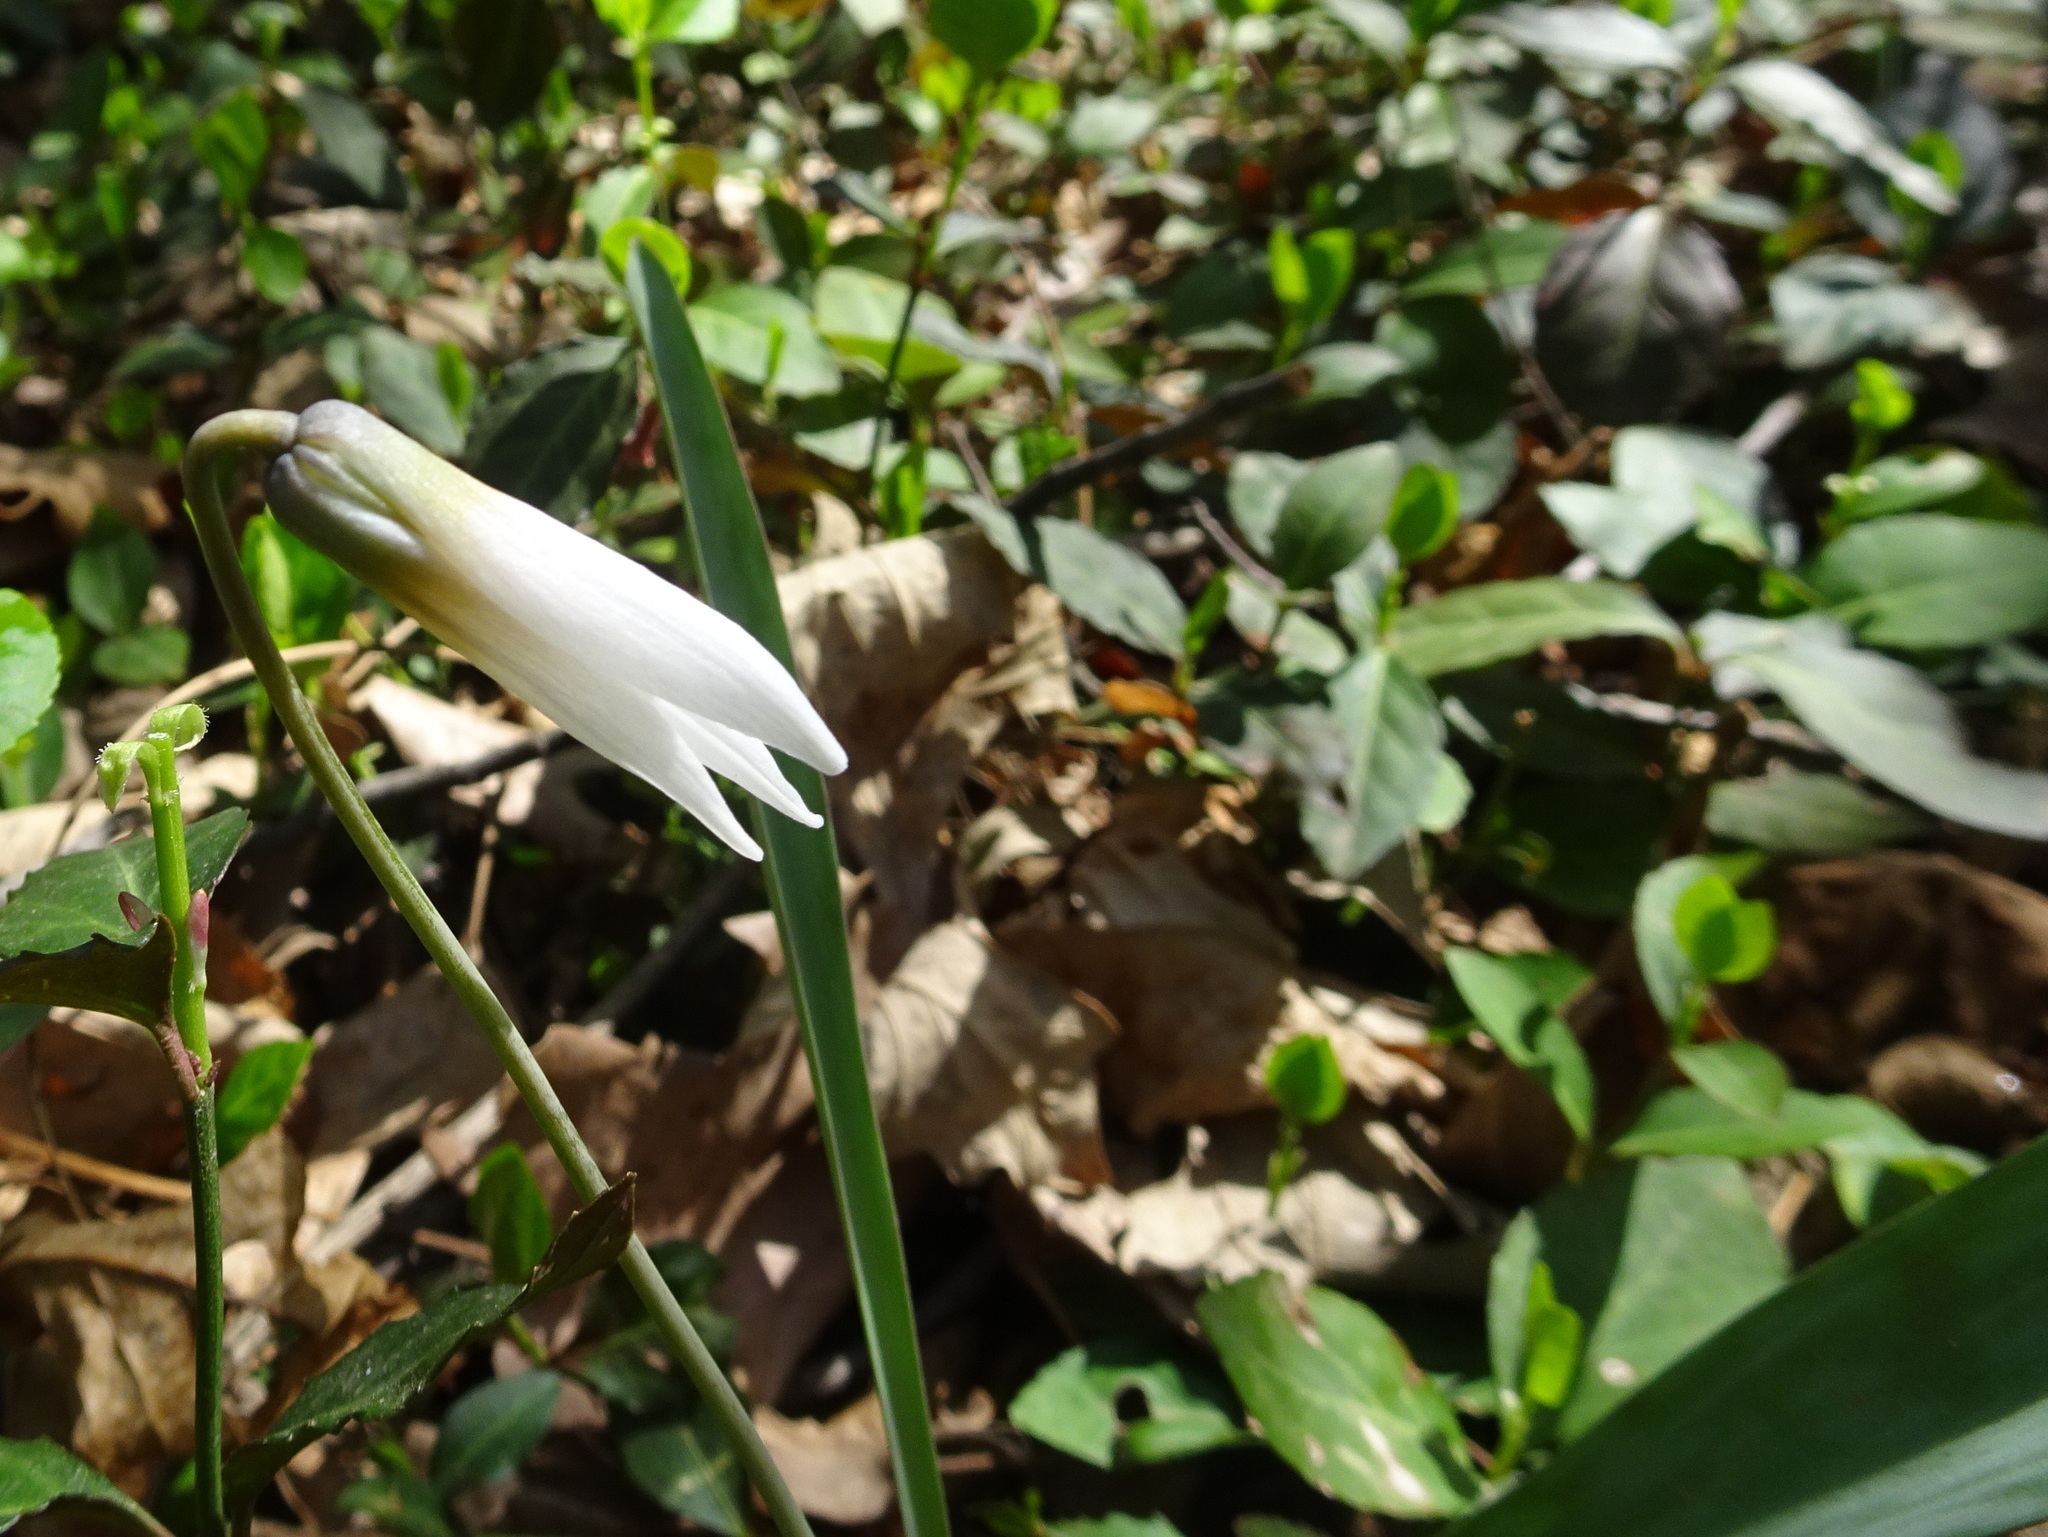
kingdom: Plantae
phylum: Tracheophyta
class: Liliopsida
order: Liliales
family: Liliaceae
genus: Erythronium
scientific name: Erythronium albidum
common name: White trout-lily
